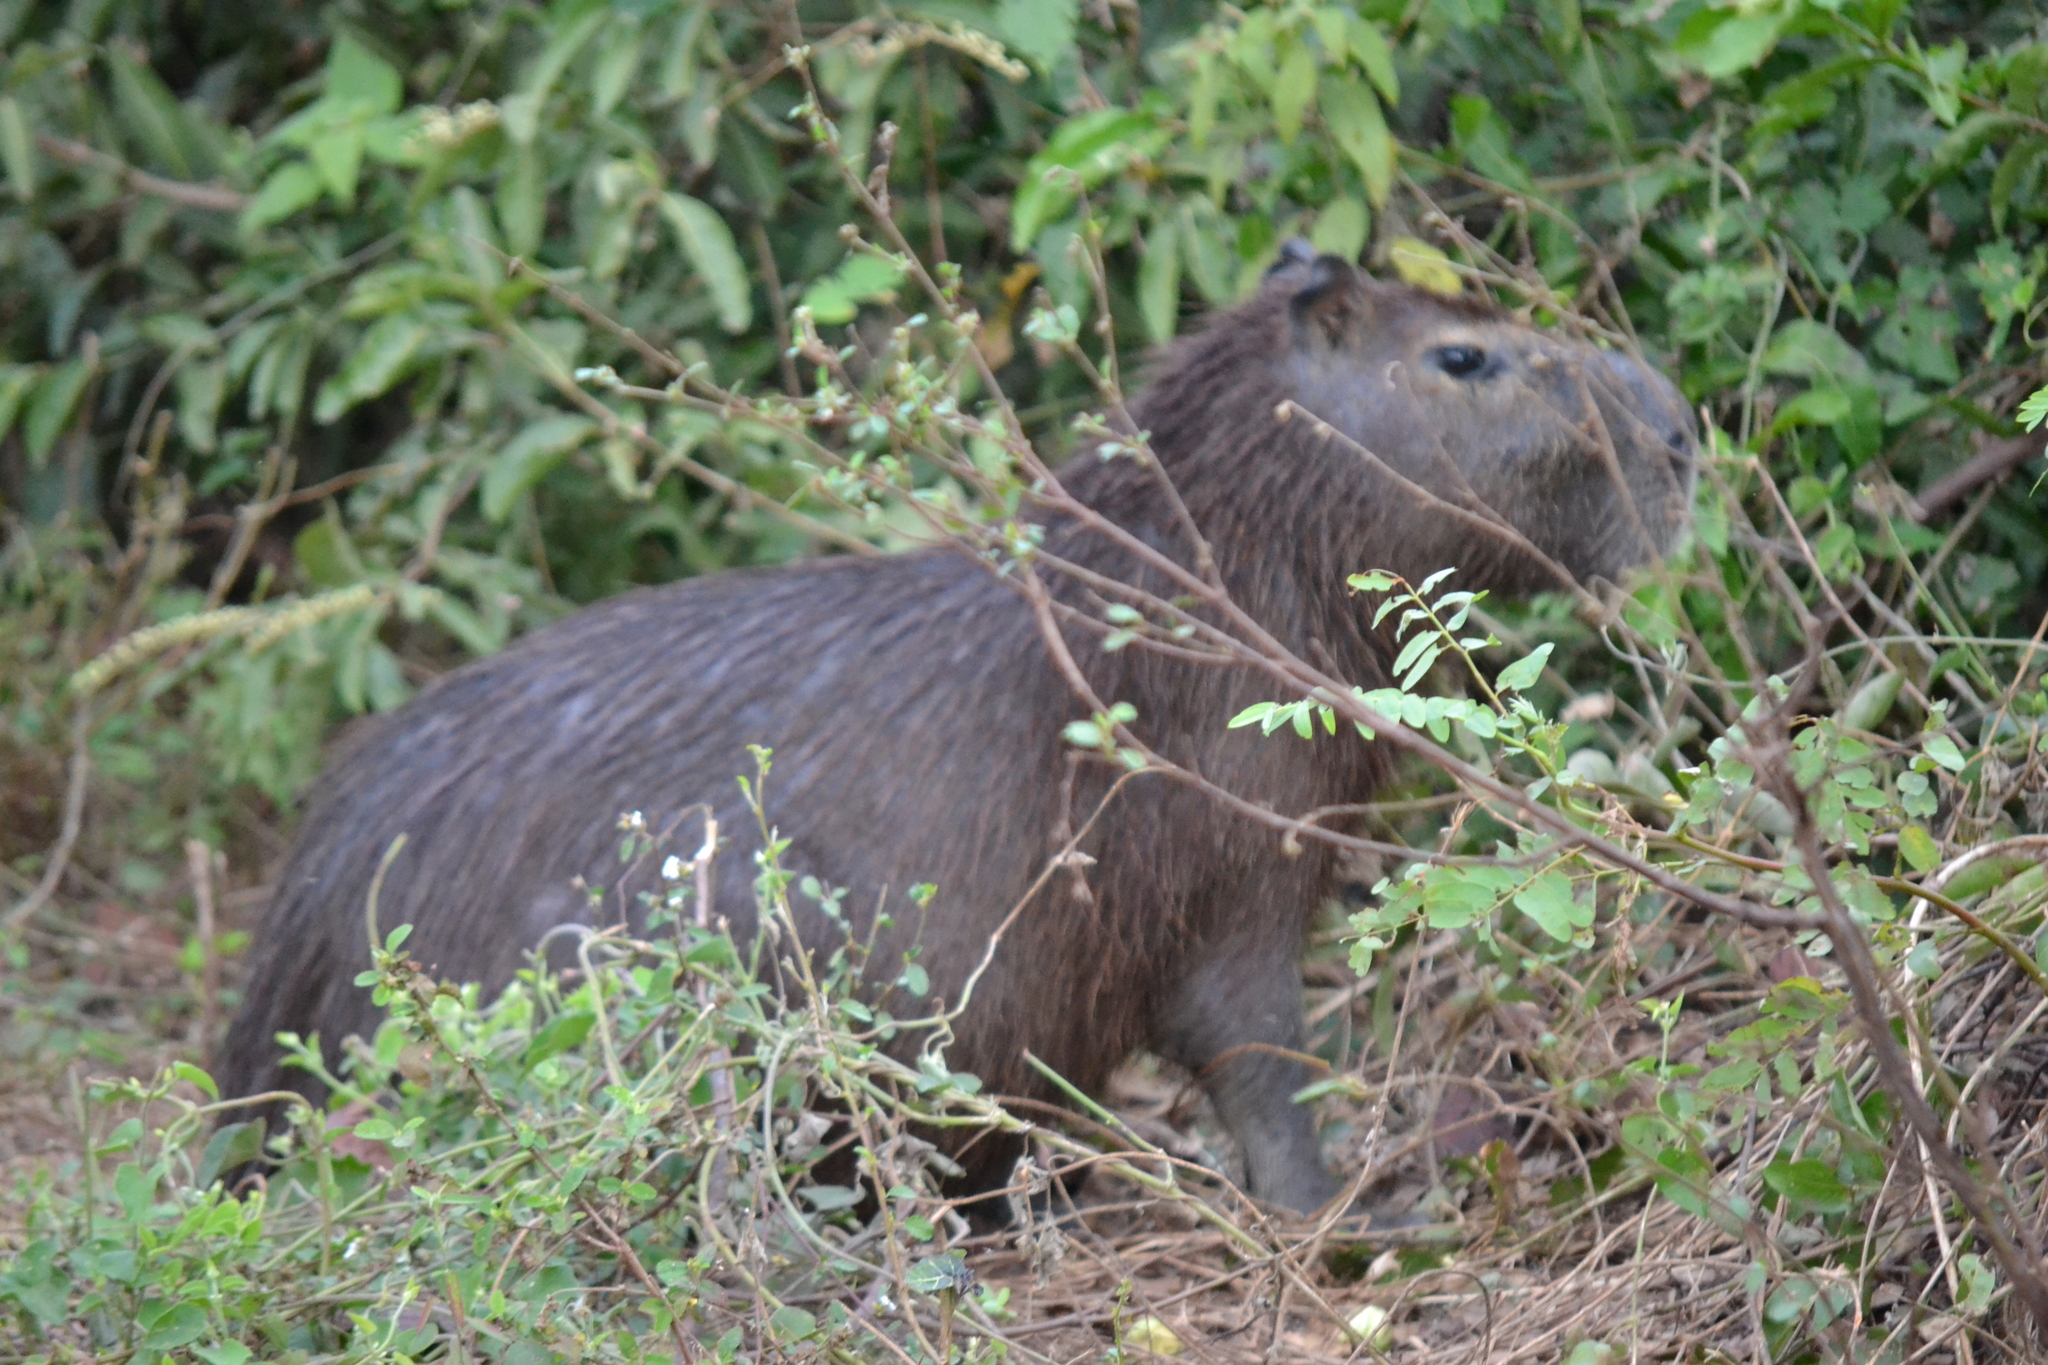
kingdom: Animalia
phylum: Chordata
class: Mammalia
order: Rodentia
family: Caviidae
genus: Hydrochoerus
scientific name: Hydrochoerus hydrochaeris
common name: Capybara
